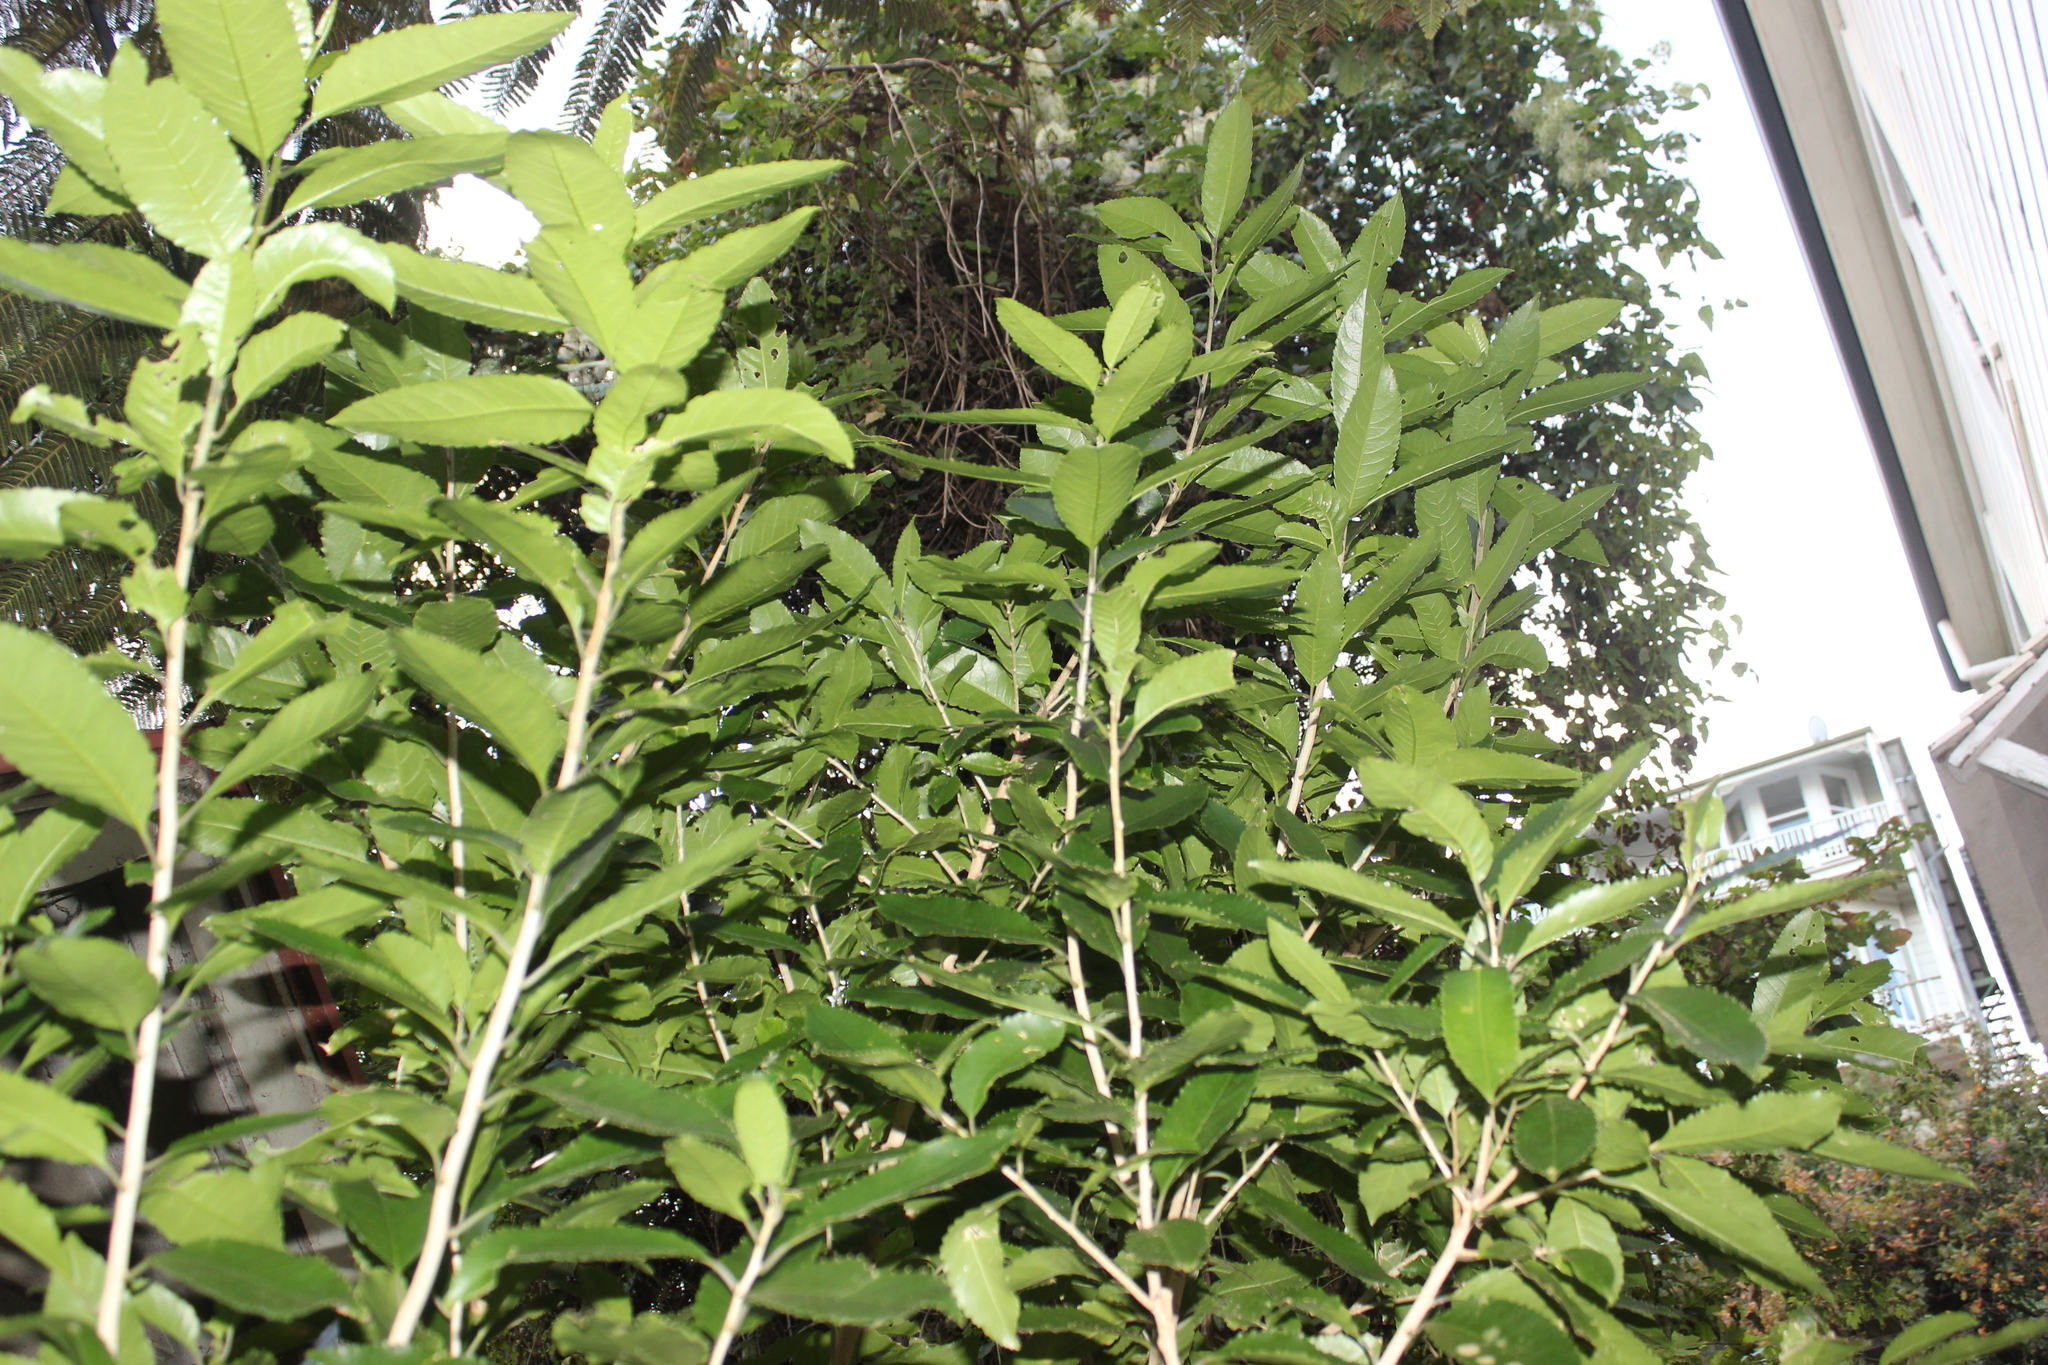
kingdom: Plantae
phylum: Tracheophyta
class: Magnoliopsida
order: Malpighiales
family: Violaceae
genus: Melicytus
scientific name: Melicytus ramiflorus
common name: Mahoe
